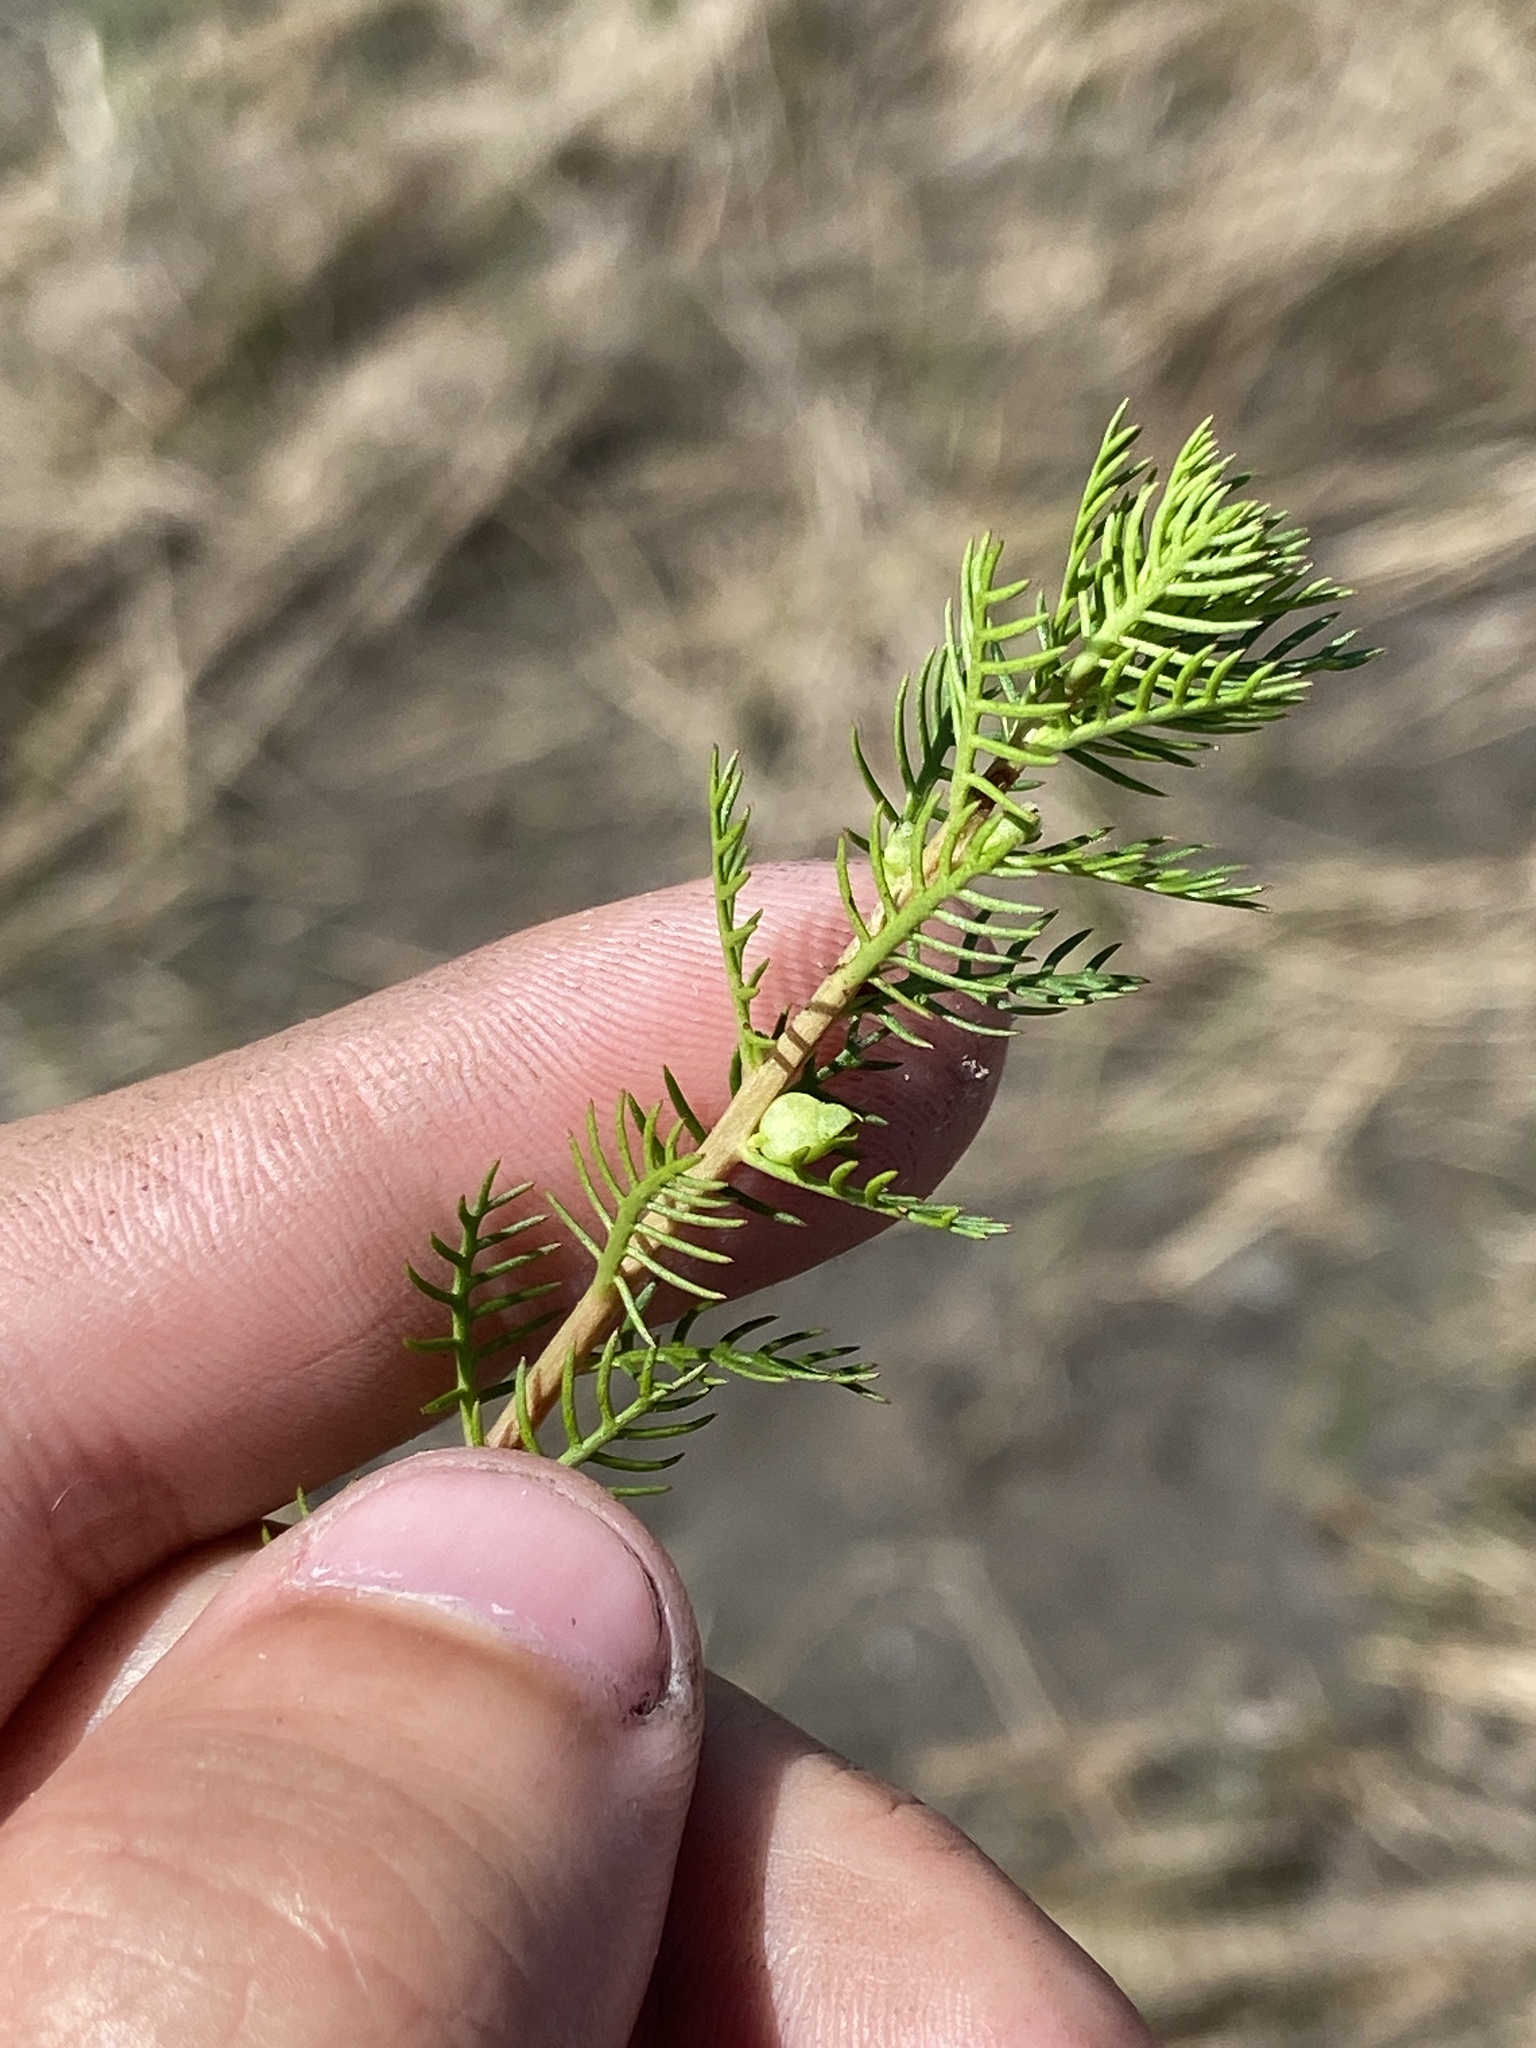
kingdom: Plantae
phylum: Tracheophyta
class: Magnoliopsida
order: Saxifragales
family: Haloragaceae
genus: Proserpinaca
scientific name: Proserpinaca pectinata
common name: Comb-leaved mermaidweed
